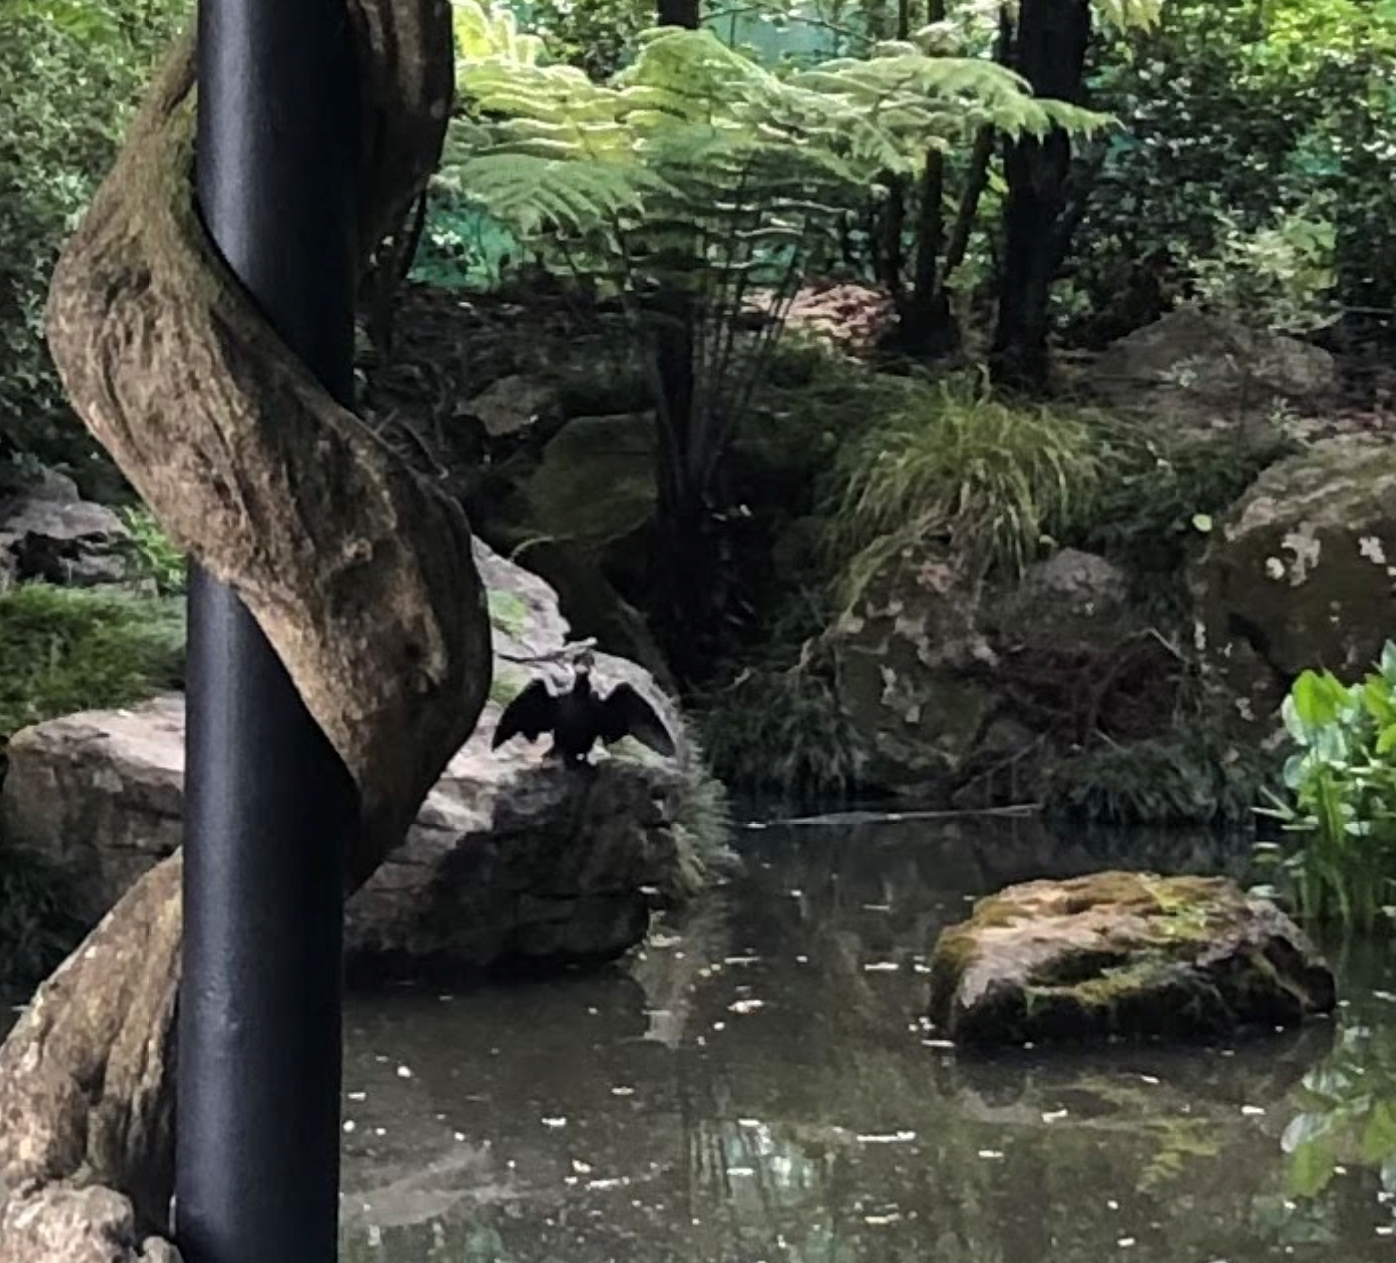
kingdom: Animalia
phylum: Chordata
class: Aves
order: Suliformes
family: Phalacrocoracidae
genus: Microcarbo
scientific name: Microcarbo melanoleucos
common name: Little pied cormorant
